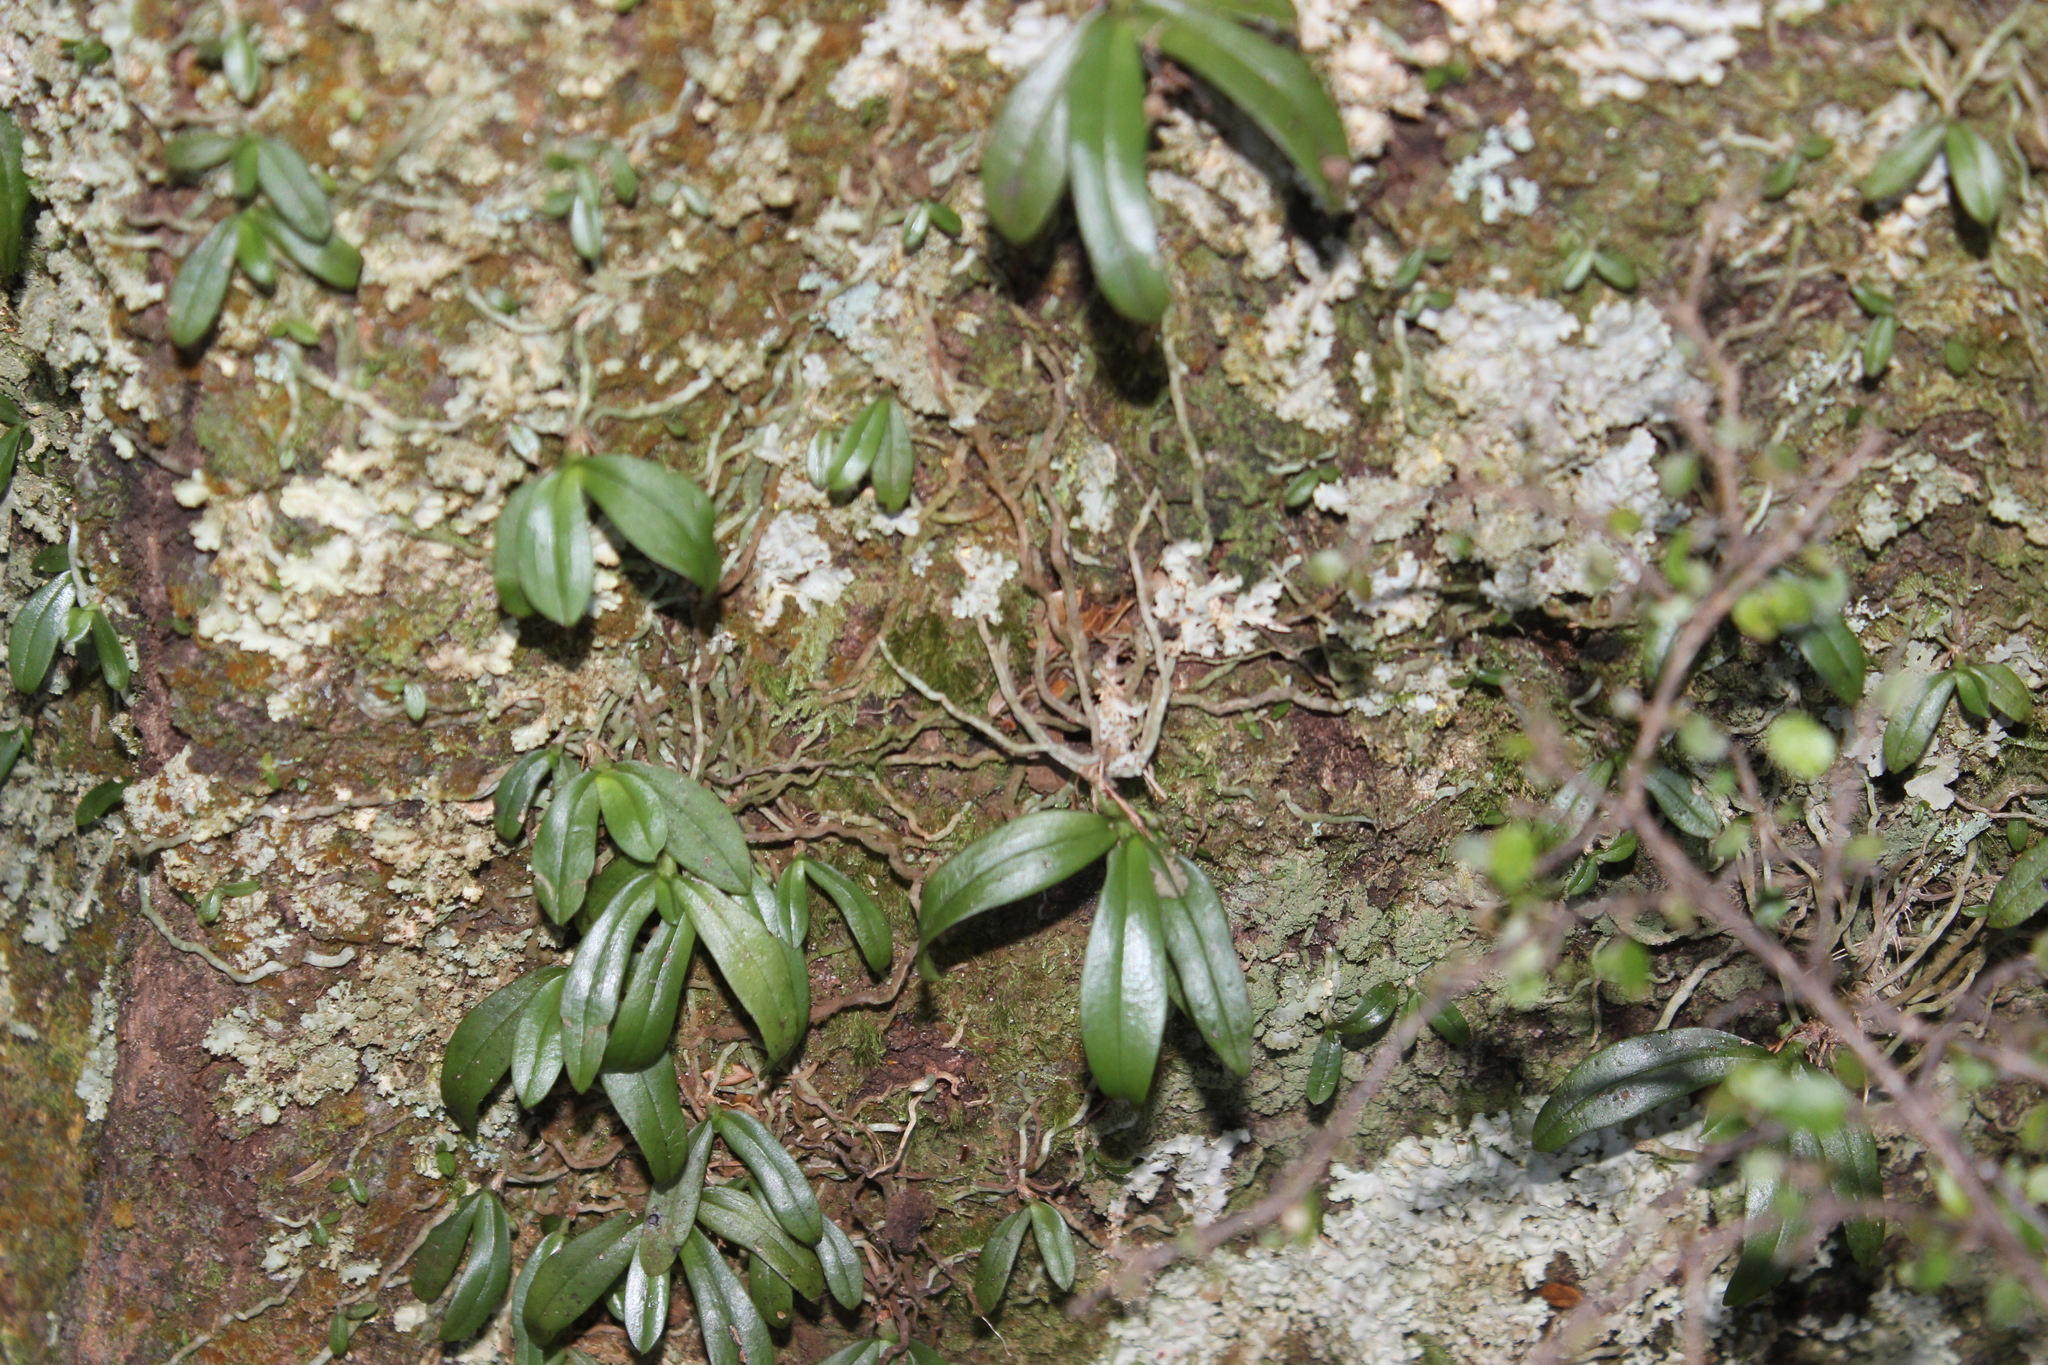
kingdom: Plantae
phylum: Tracheophyta
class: Liliopsida
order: Asparagales
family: Orchidaceae
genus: Drymoanthus
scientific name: Drymoanthus adversus
